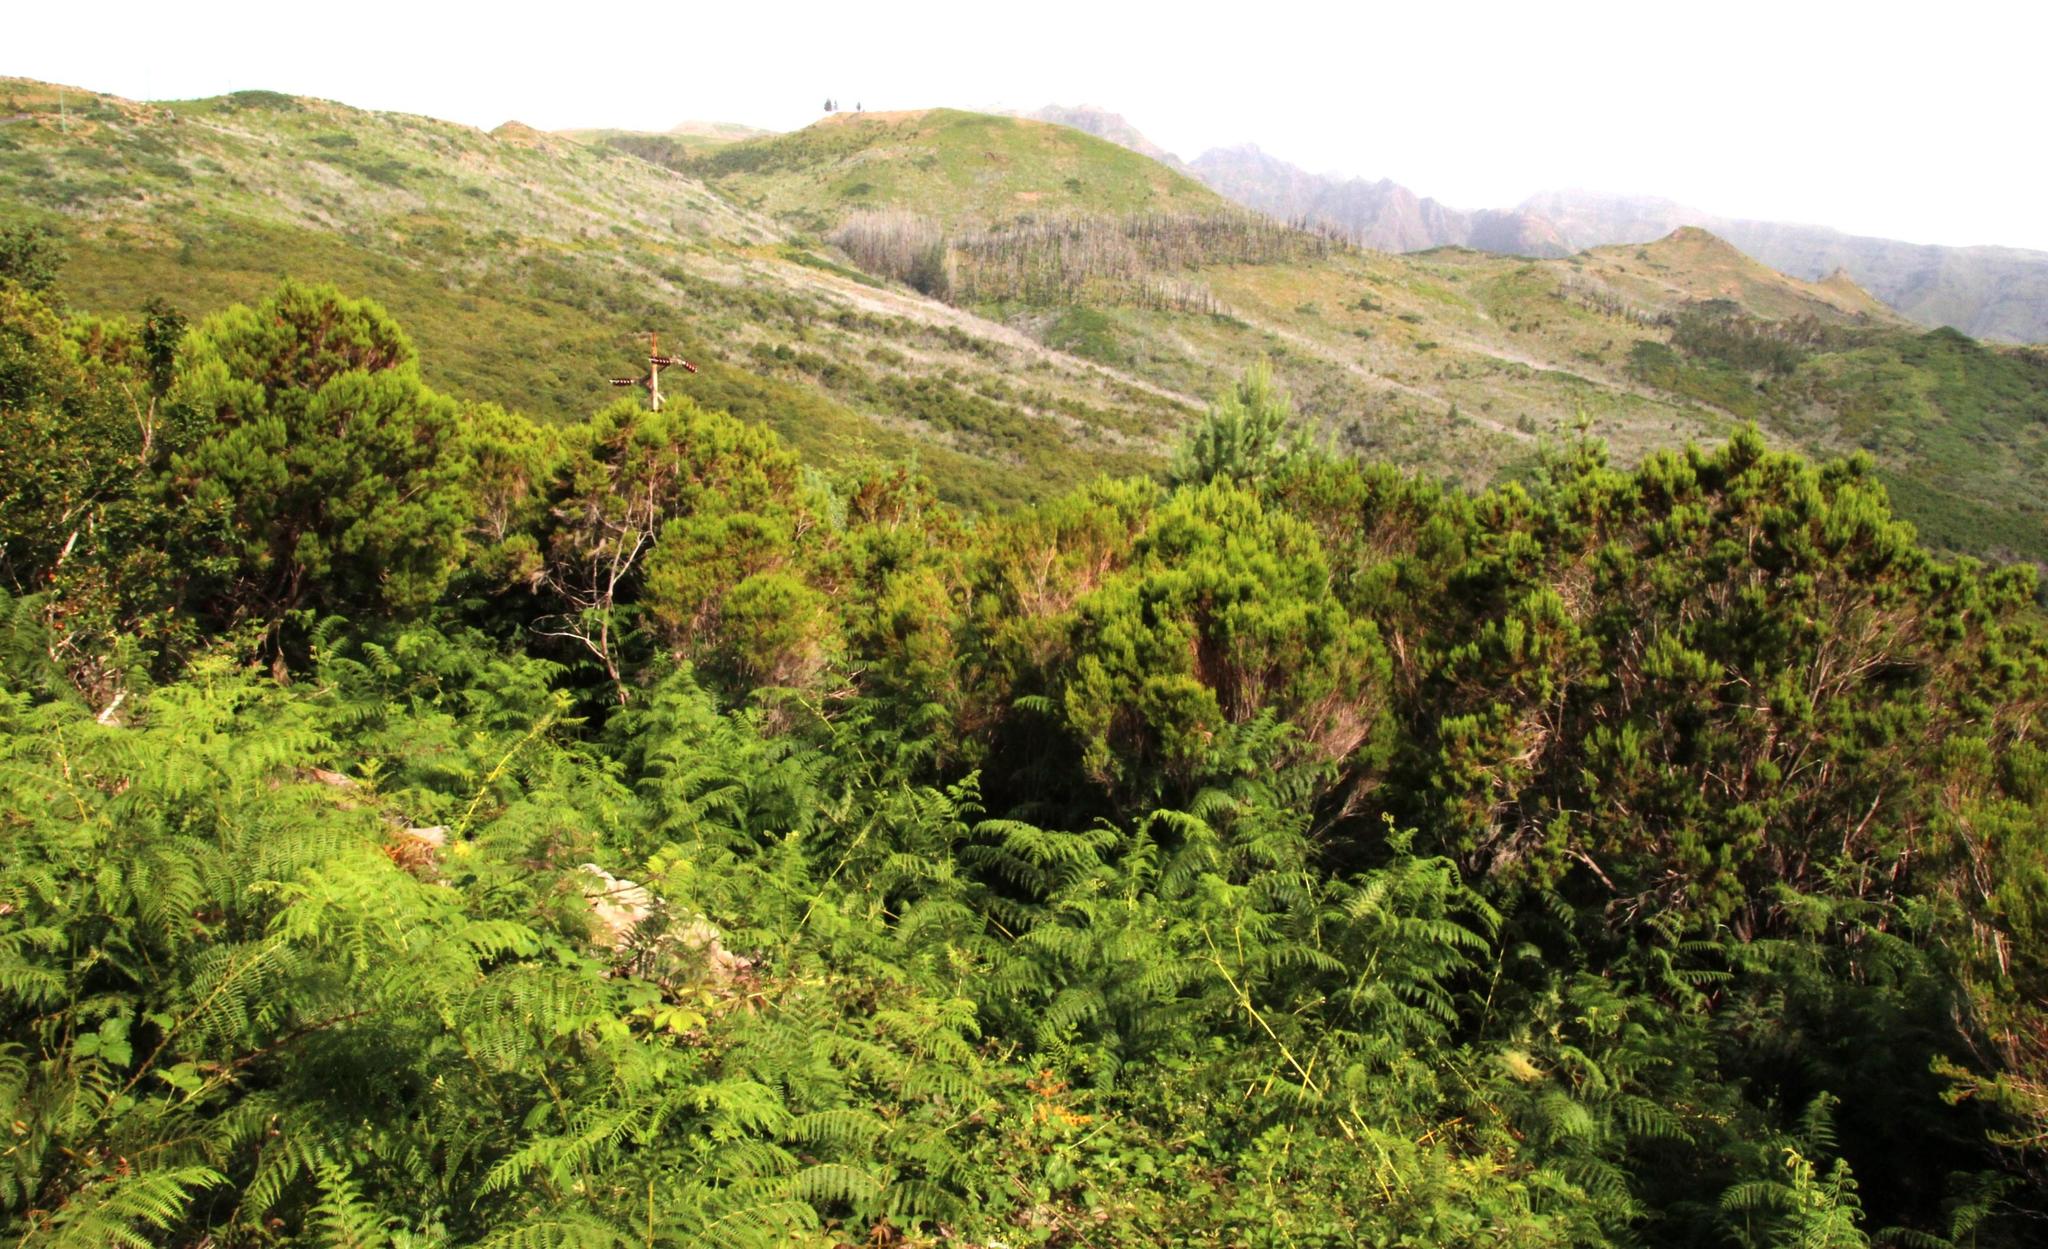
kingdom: Plantae
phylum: Tracheophyta
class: Magnoliopsida
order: Ericales
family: Ericaceae
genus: Erica
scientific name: Erica canariensis
